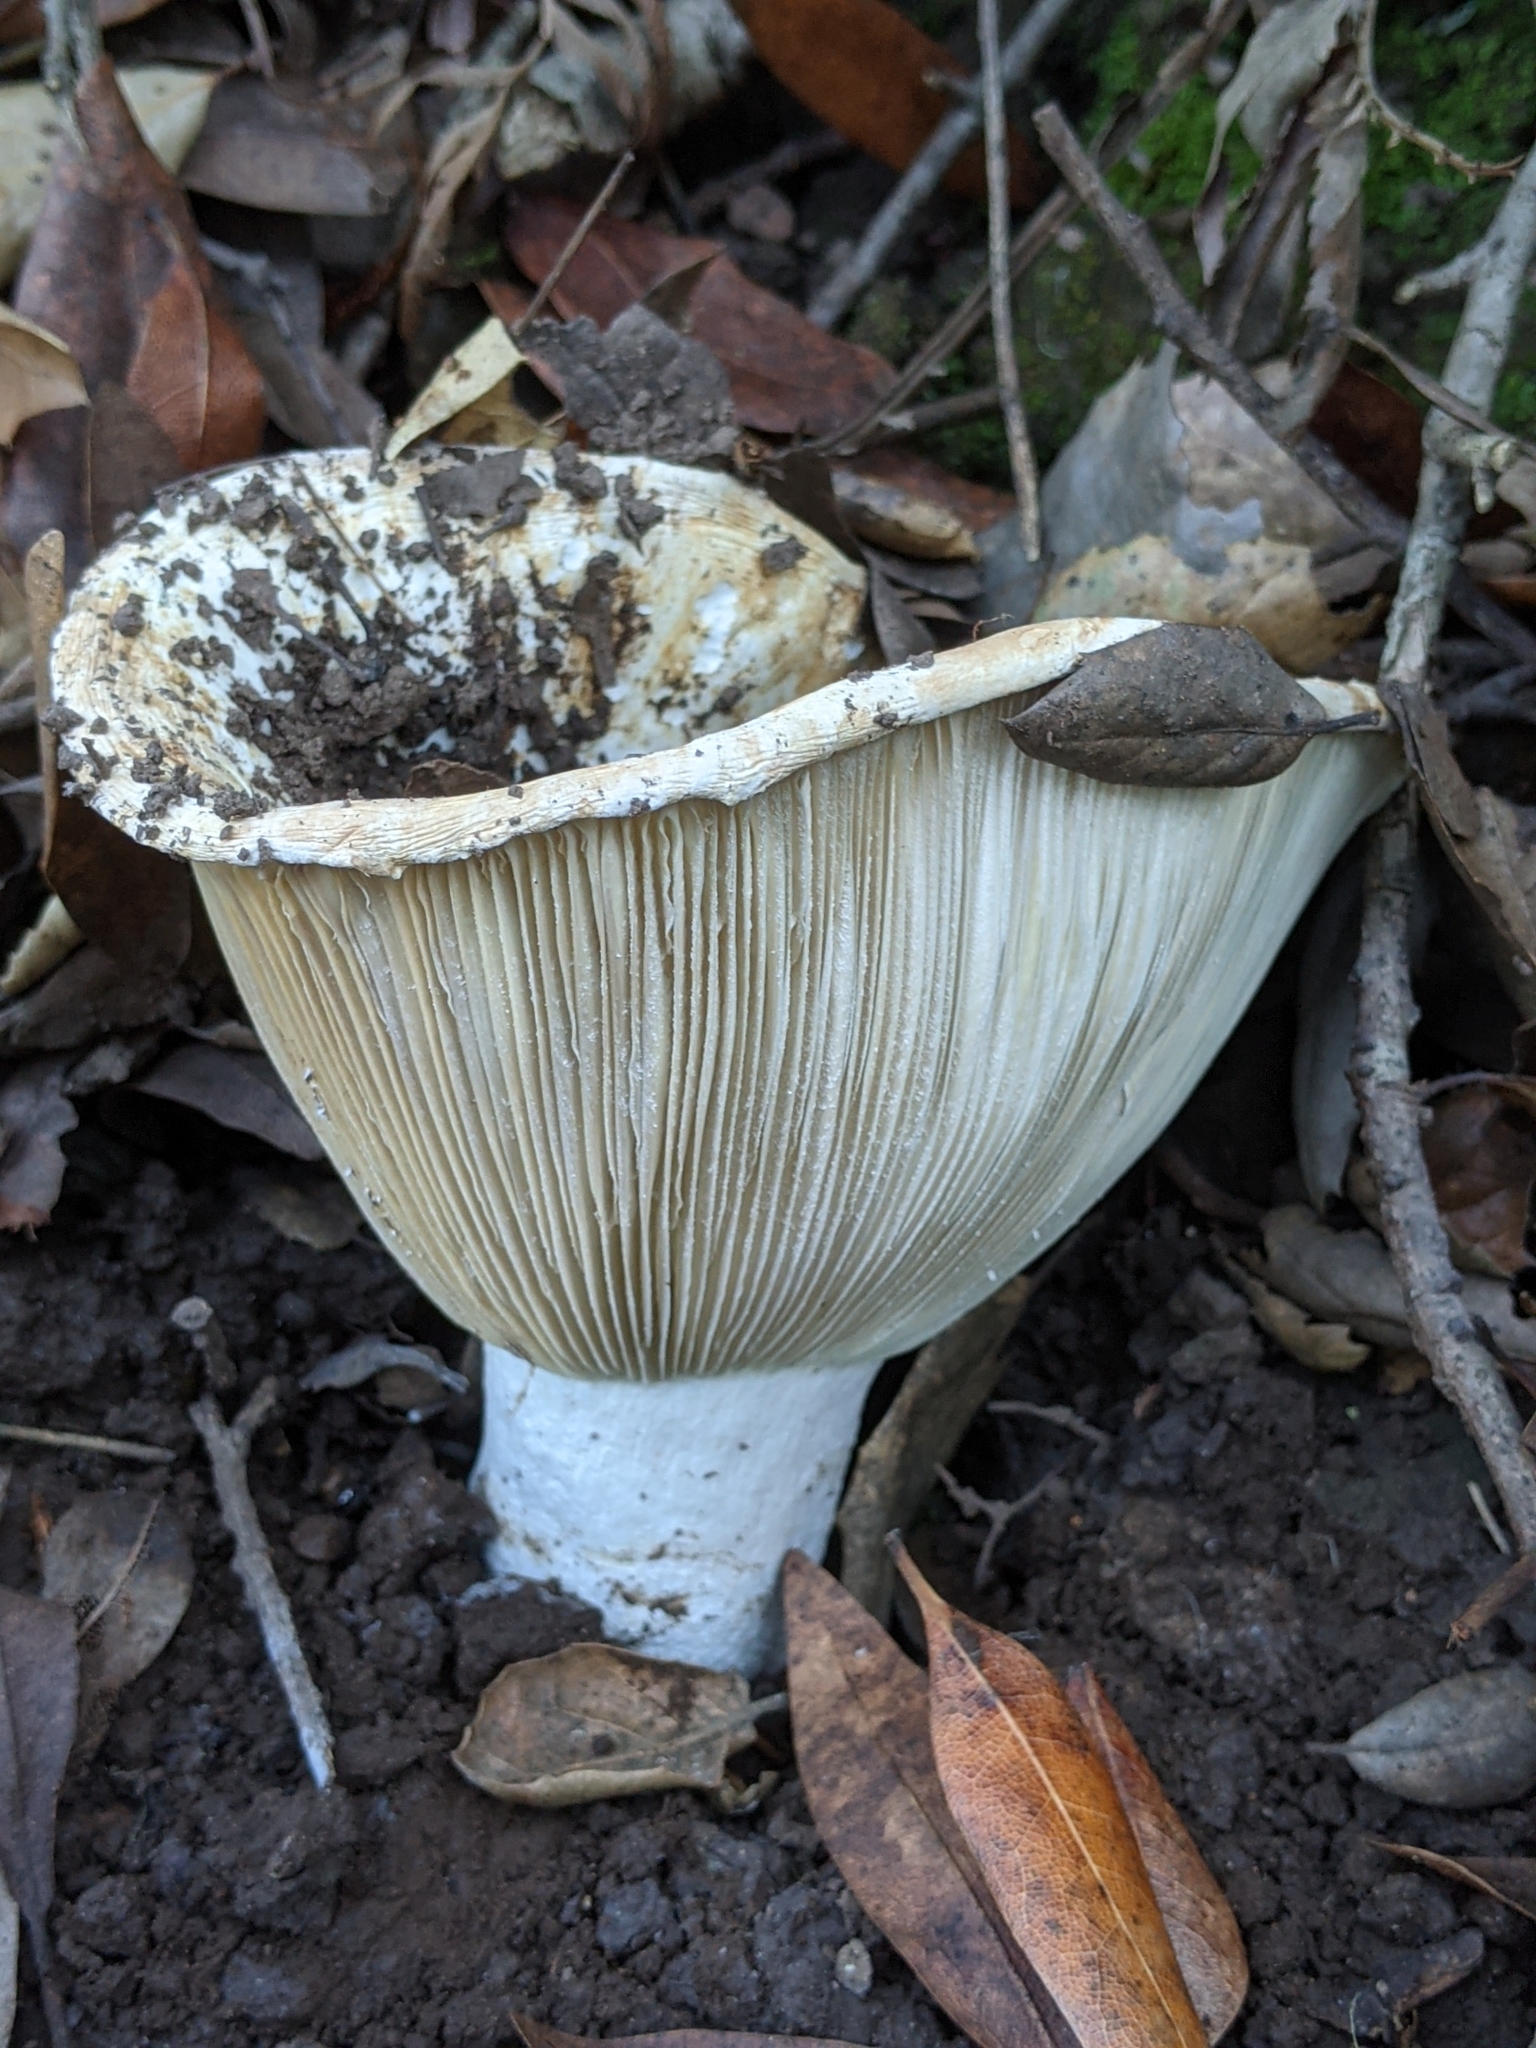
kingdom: Fungi
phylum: Basidiomycota
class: Agaricomycetes
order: Russulales
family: Russulaceae
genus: Russula
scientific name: Russula brevipes
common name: Short-stemmed russula
